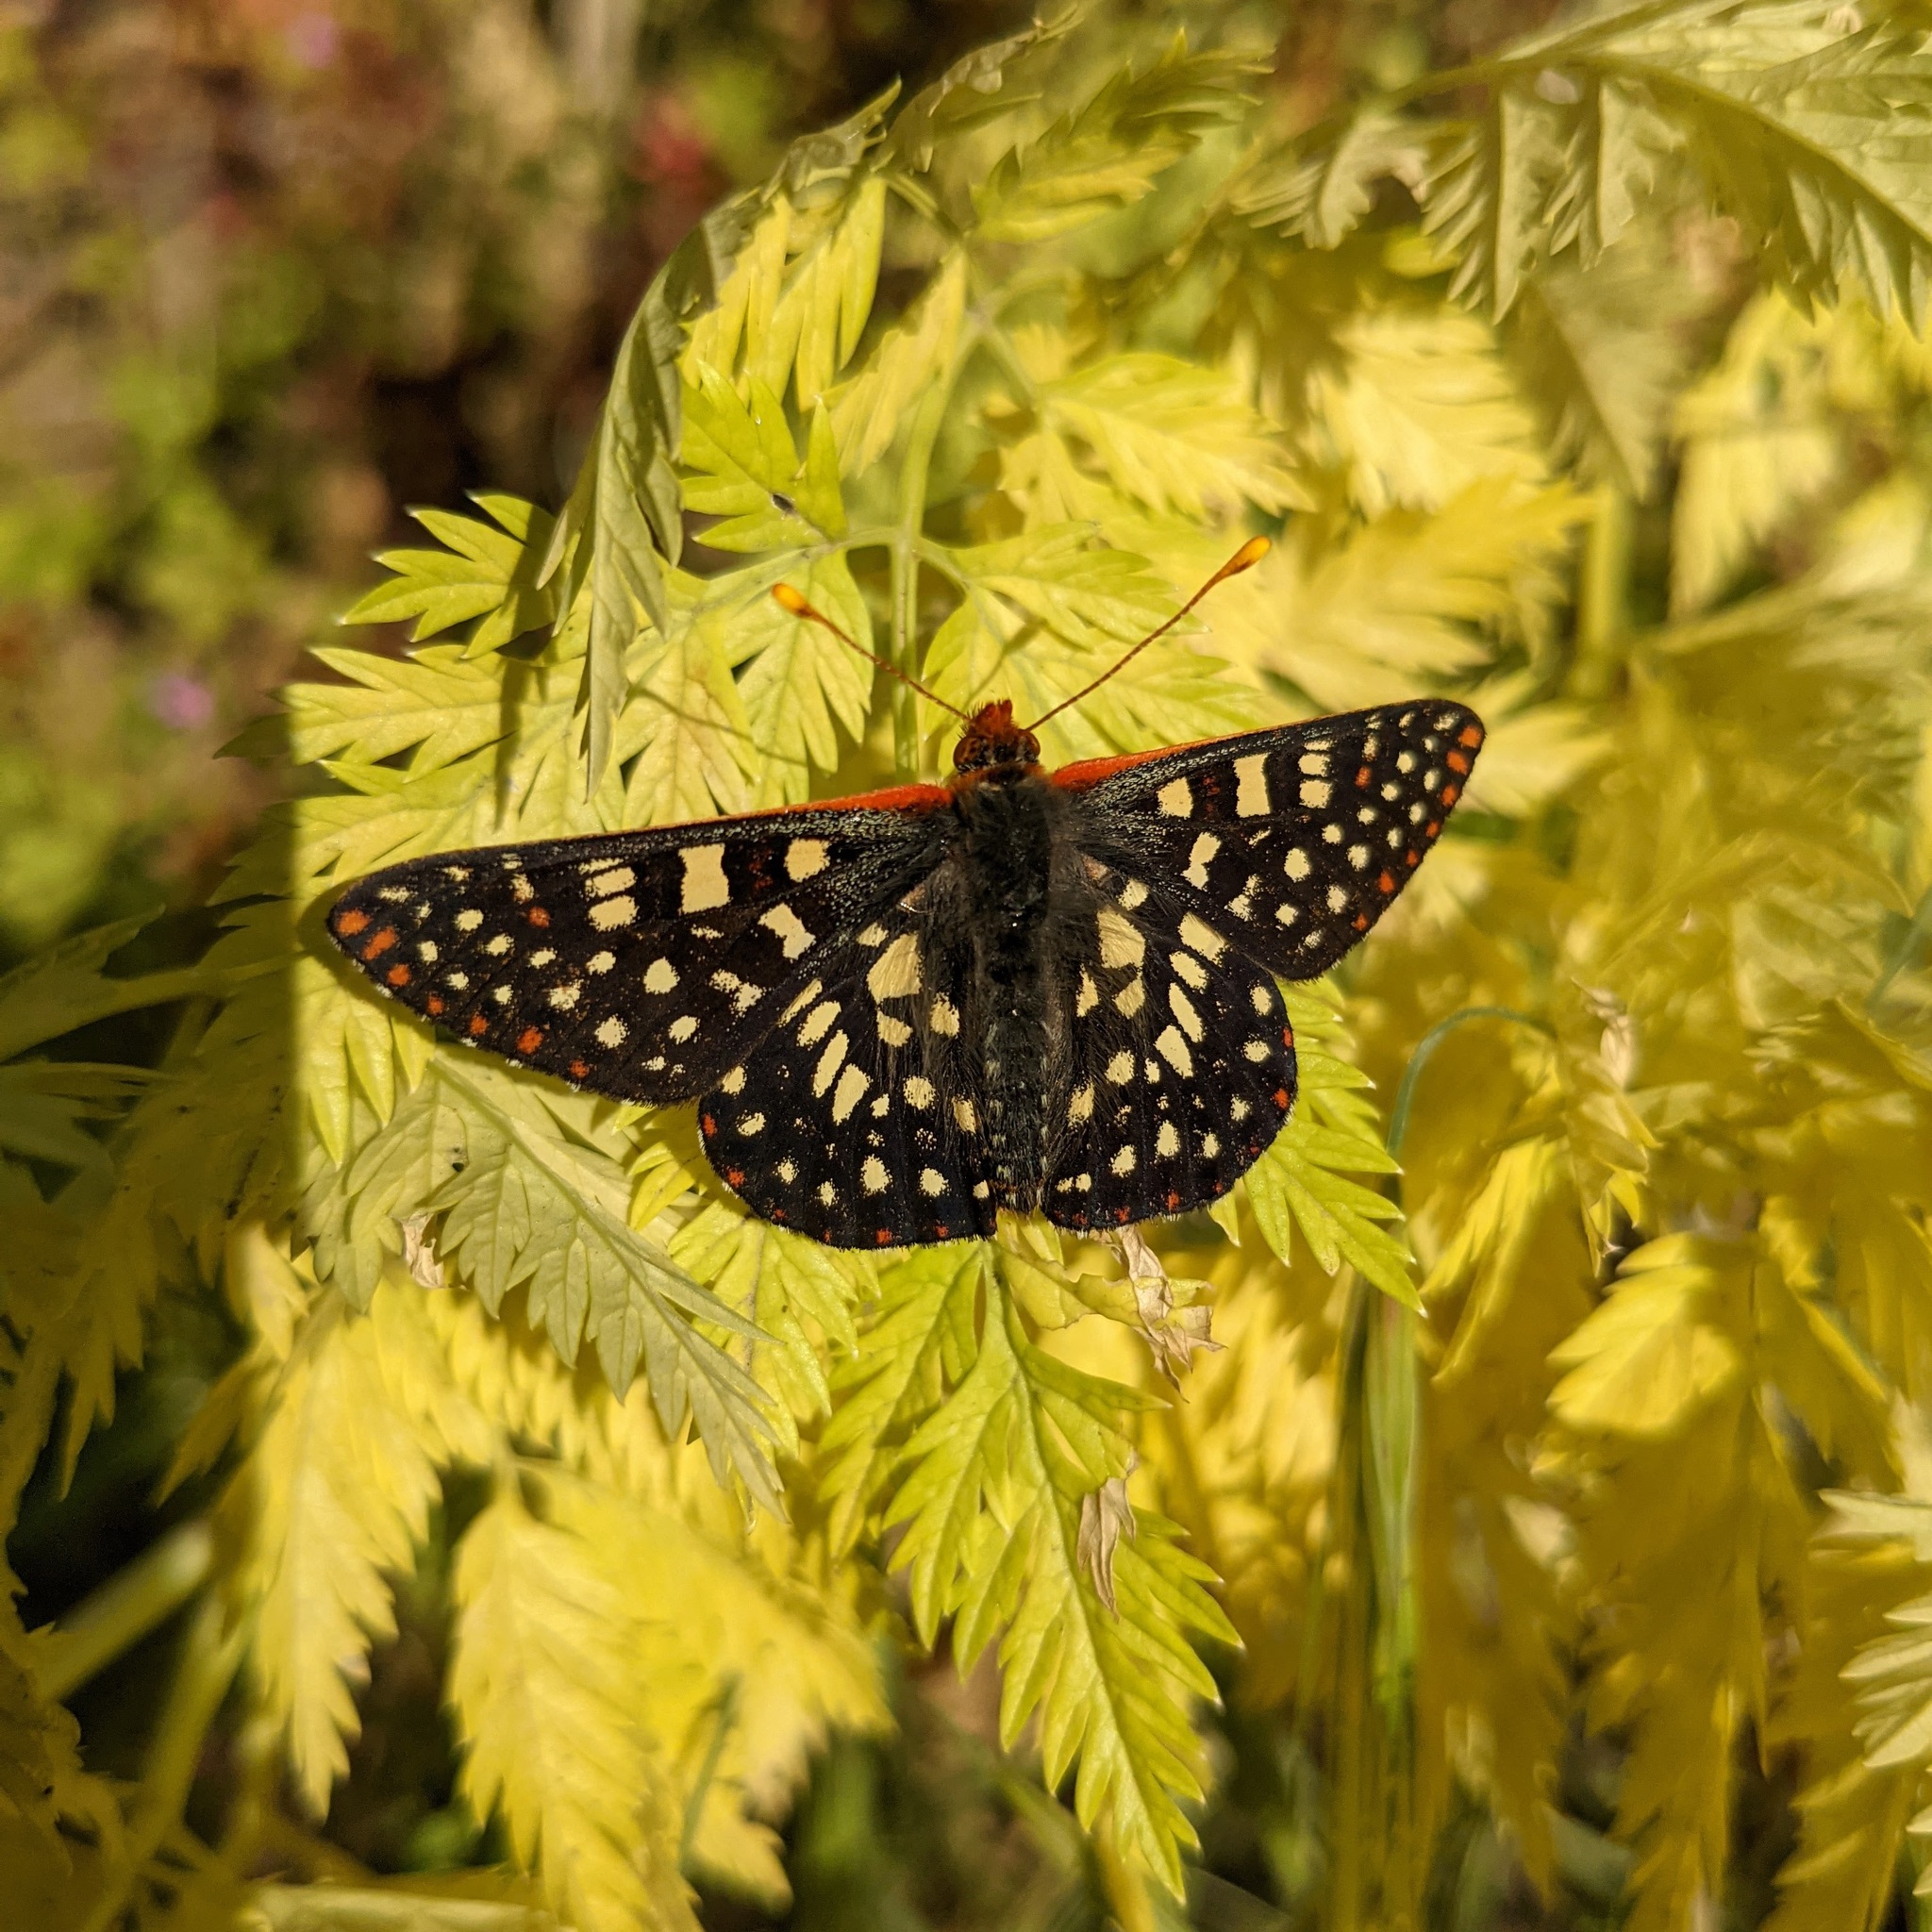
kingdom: Animalia
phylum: Arthropoda
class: Insecta
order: Lepidoptera
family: Nymphalidae
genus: Occidryas
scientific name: Occidryas chalcedona
